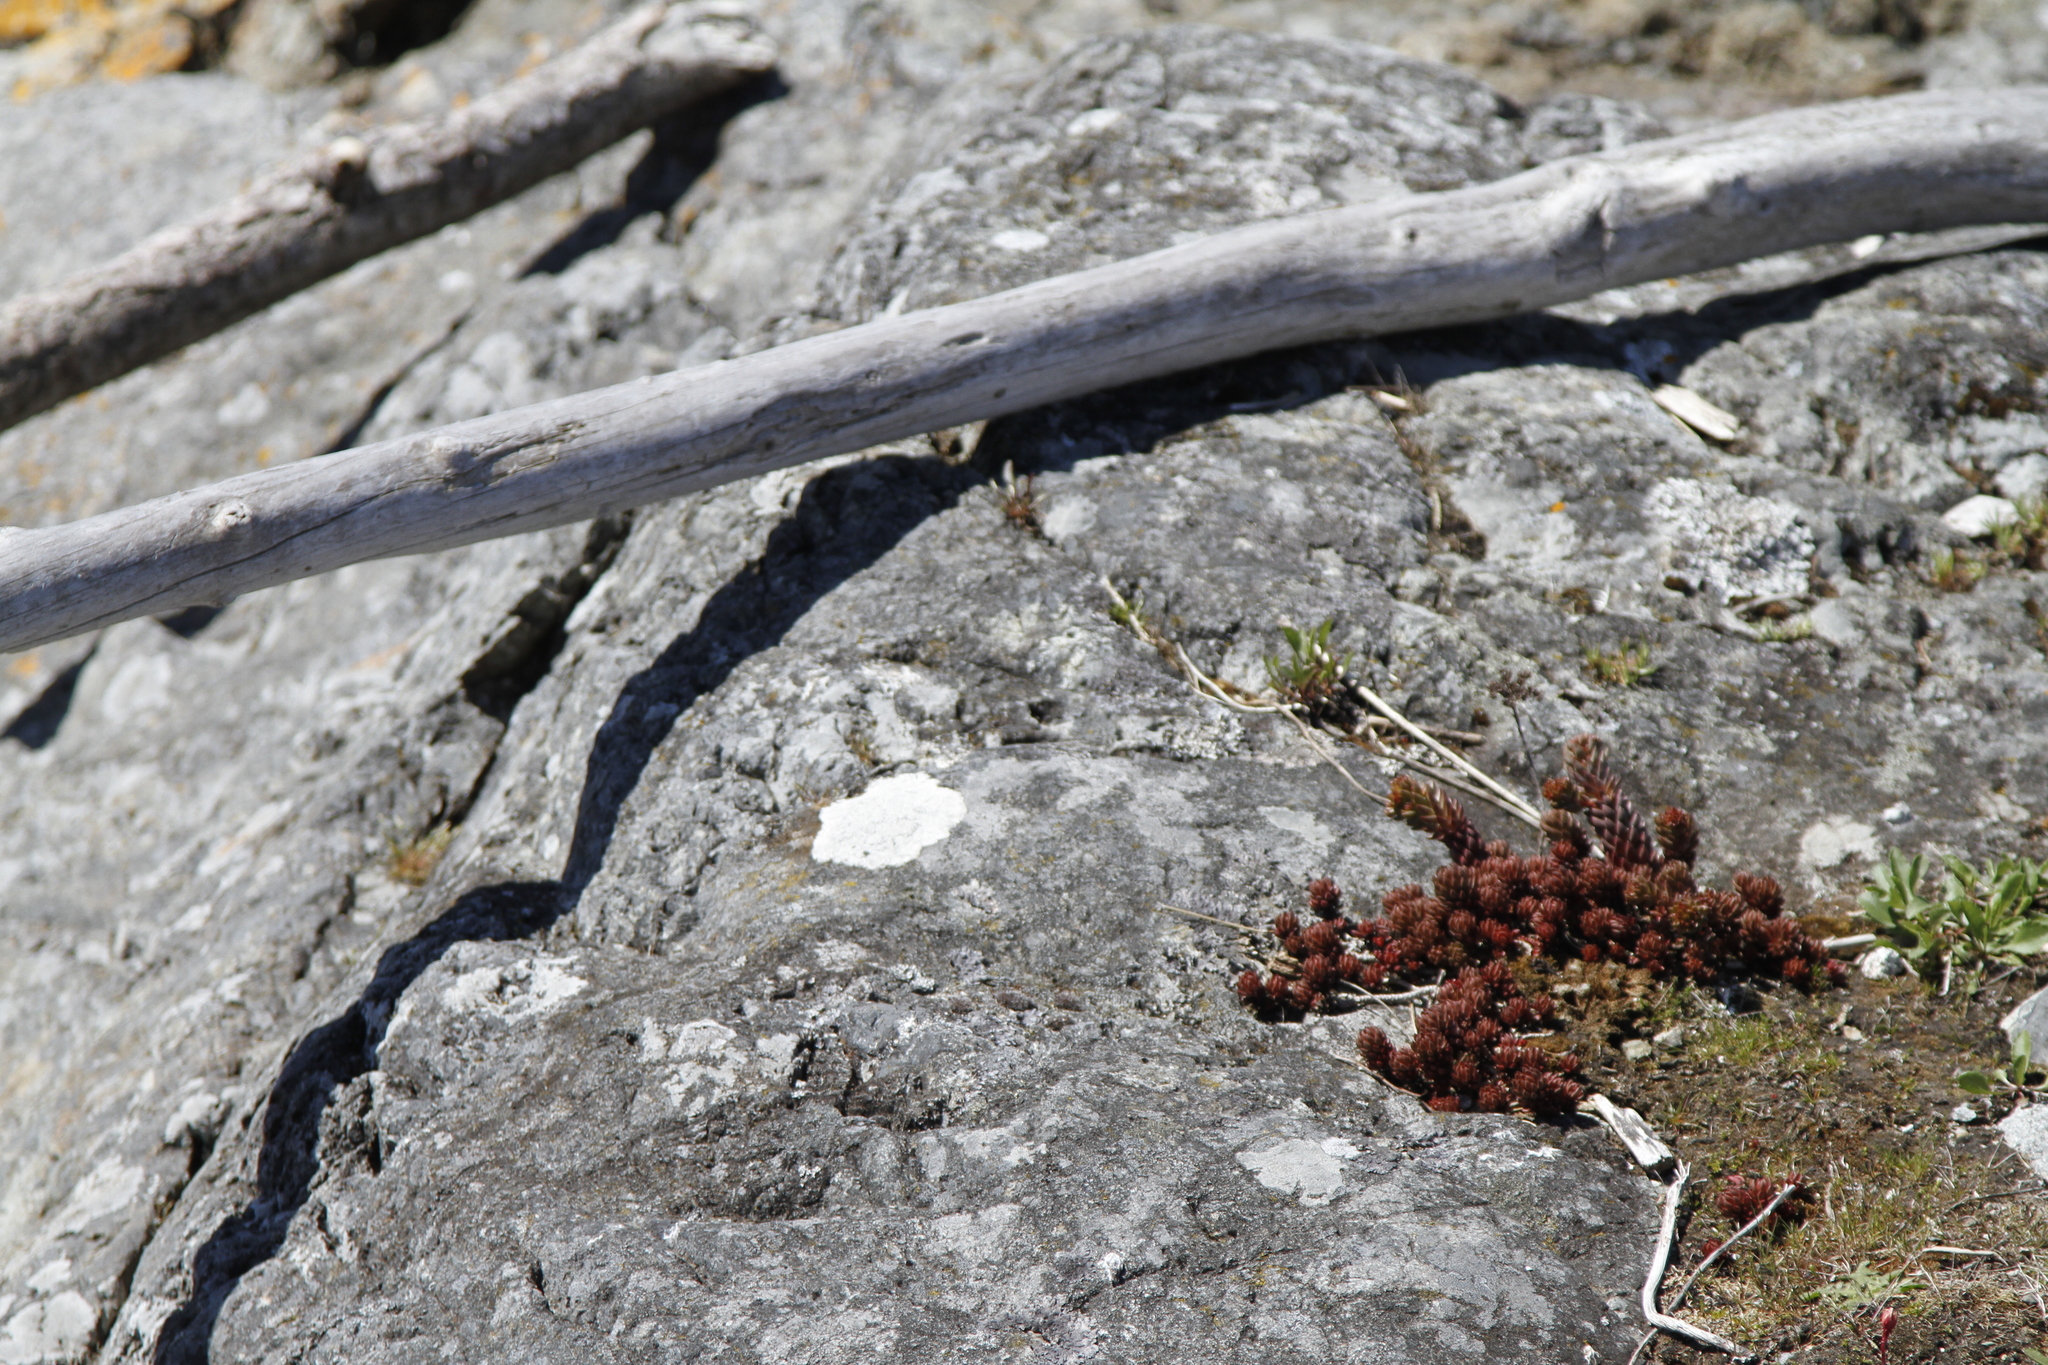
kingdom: Plantae
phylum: Tracheophyta
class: Magnoliopsida
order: Saxifragales
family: Crassulaceae
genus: Sedum
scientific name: Sedum lanceolatum
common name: Common stonecrop
